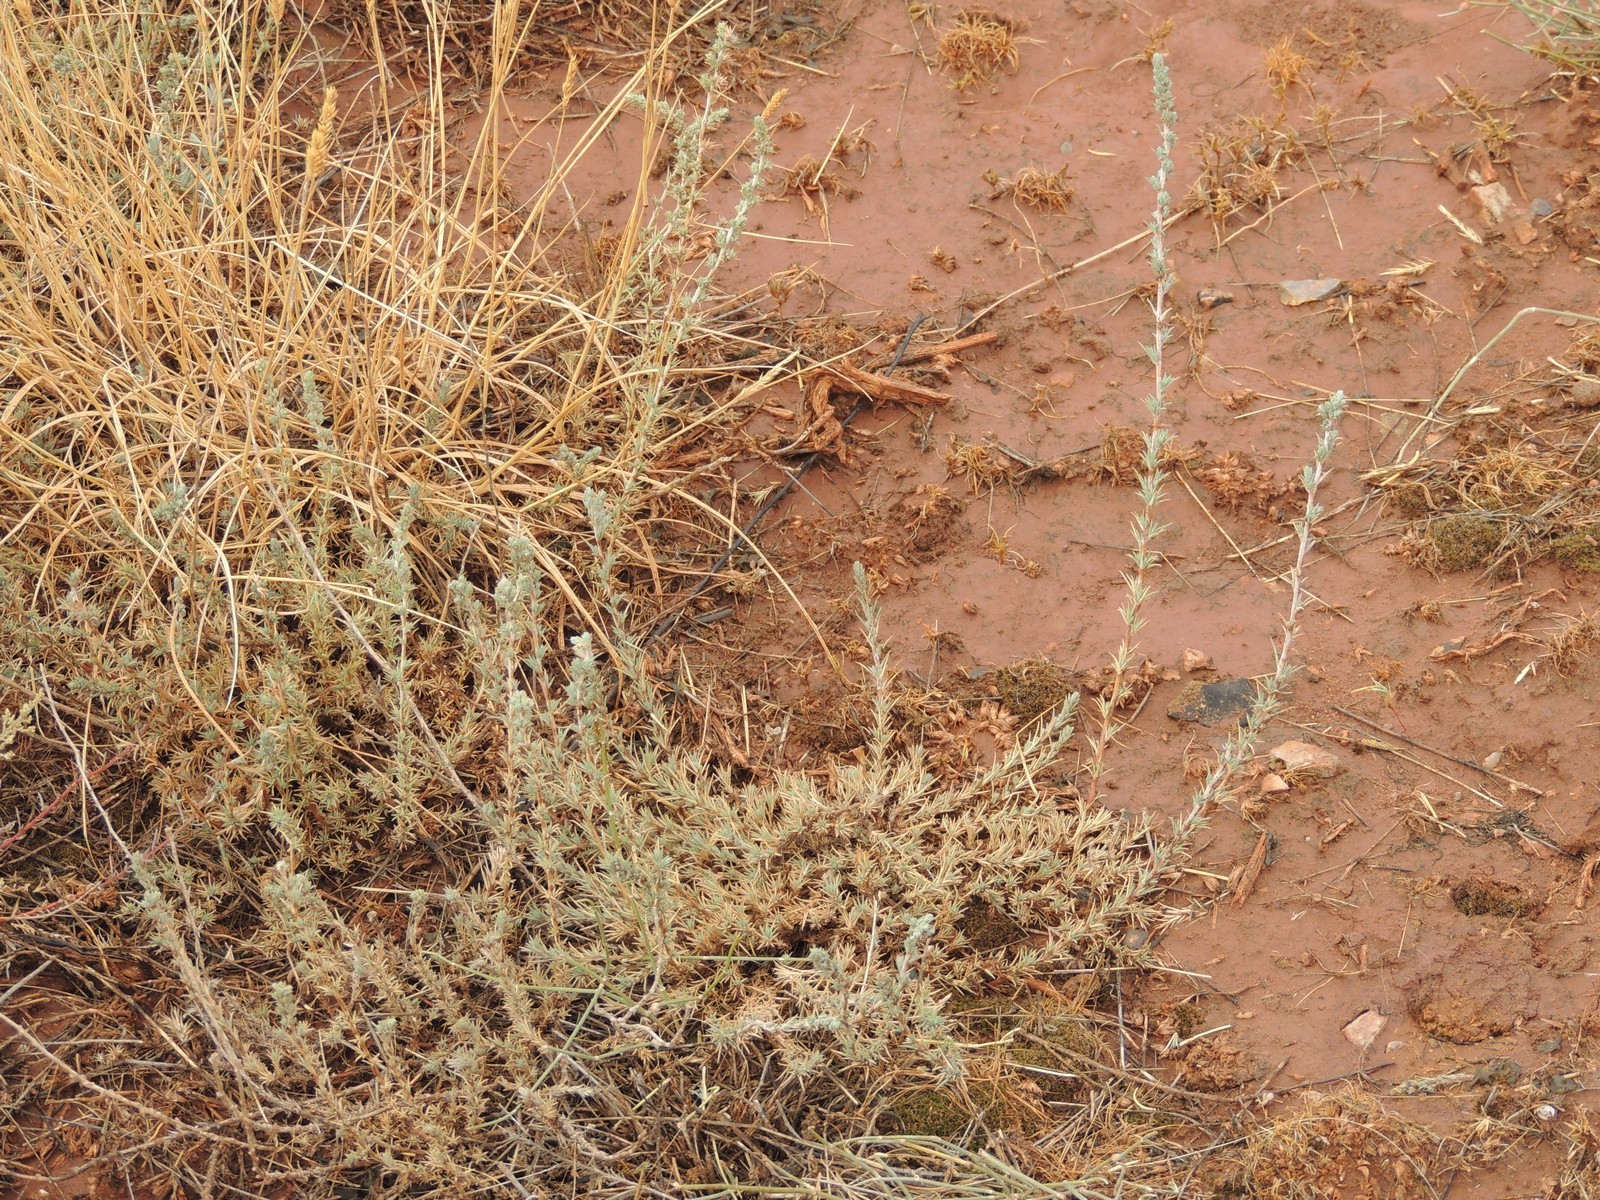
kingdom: Plantae
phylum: Tracheophyta
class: Magnoliopsida
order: Caryophyllales
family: Amaranthaceae
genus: Camphorosma
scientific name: Camphorosma monspeliaca
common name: Camphorfume
